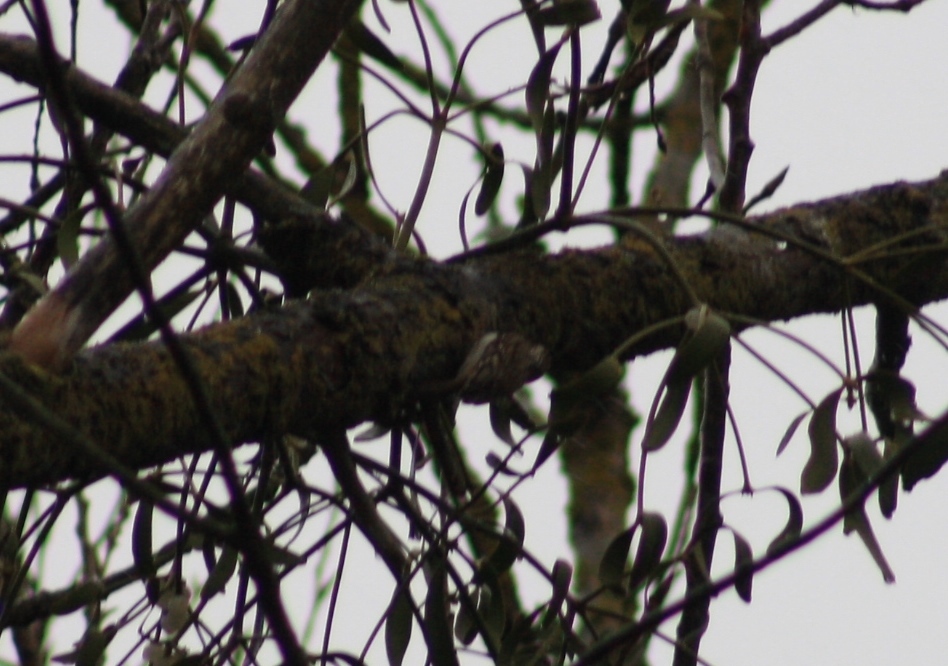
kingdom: Animalia
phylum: Chordata
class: Aves
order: Passeriformes
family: Certhiidae
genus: Certhia
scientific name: Certhia familiaris
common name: Eurasian treecreeper
